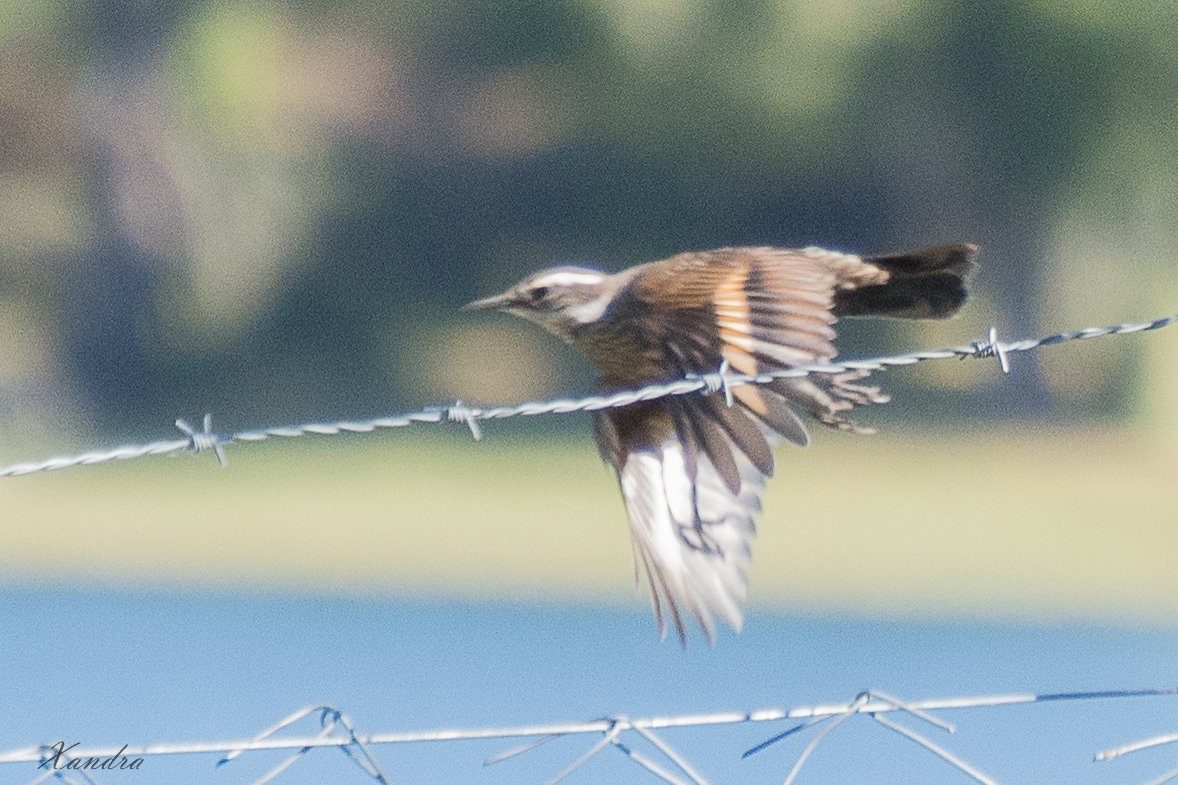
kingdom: Animalia
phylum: Chordata
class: Aves
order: Passeriformes
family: Furnariidae
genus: Cinclodes
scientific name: Cinclodes patagonicus
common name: Dark-bellied cinclodes
